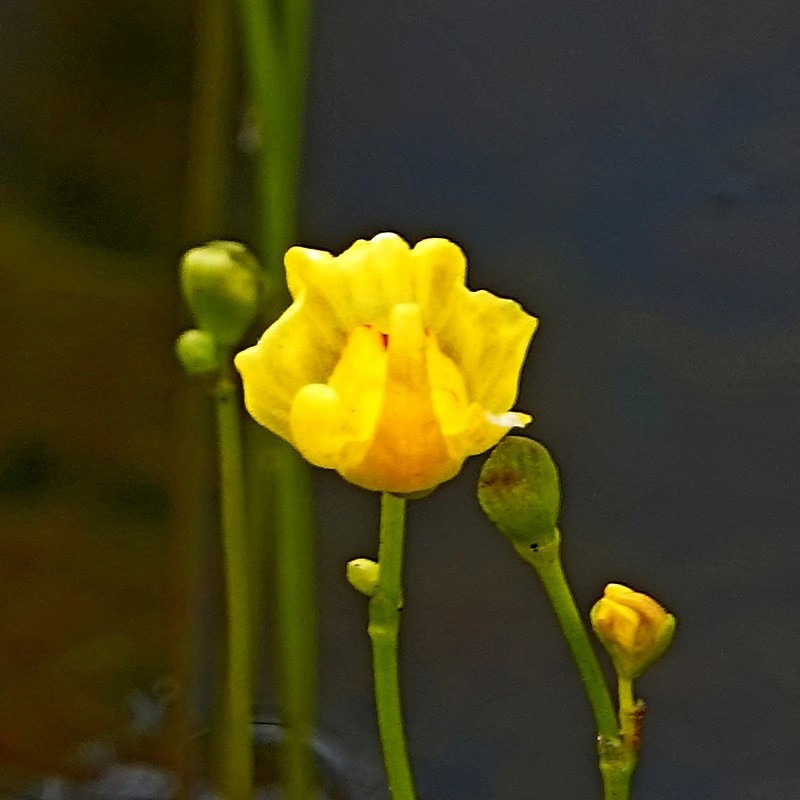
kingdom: Plantae
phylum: Tracheophyta
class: Magnoliopsida
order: Lamiales
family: Lentibulariaceae
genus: Utricularia
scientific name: Utricularia gibba
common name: Humped bladderwort
